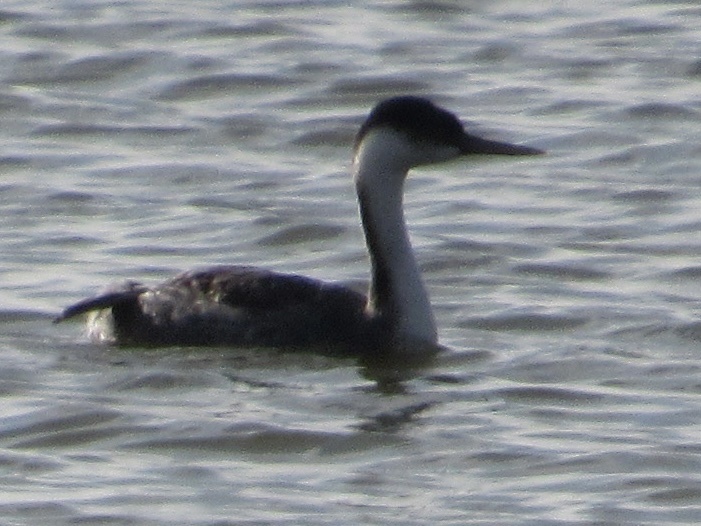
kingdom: Animalia
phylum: Chordata
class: Aves
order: Podicipediformes
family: Podicipedidae
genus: Aechmophorus
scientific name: Aechmophorus occidentalis
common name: Western grebe
